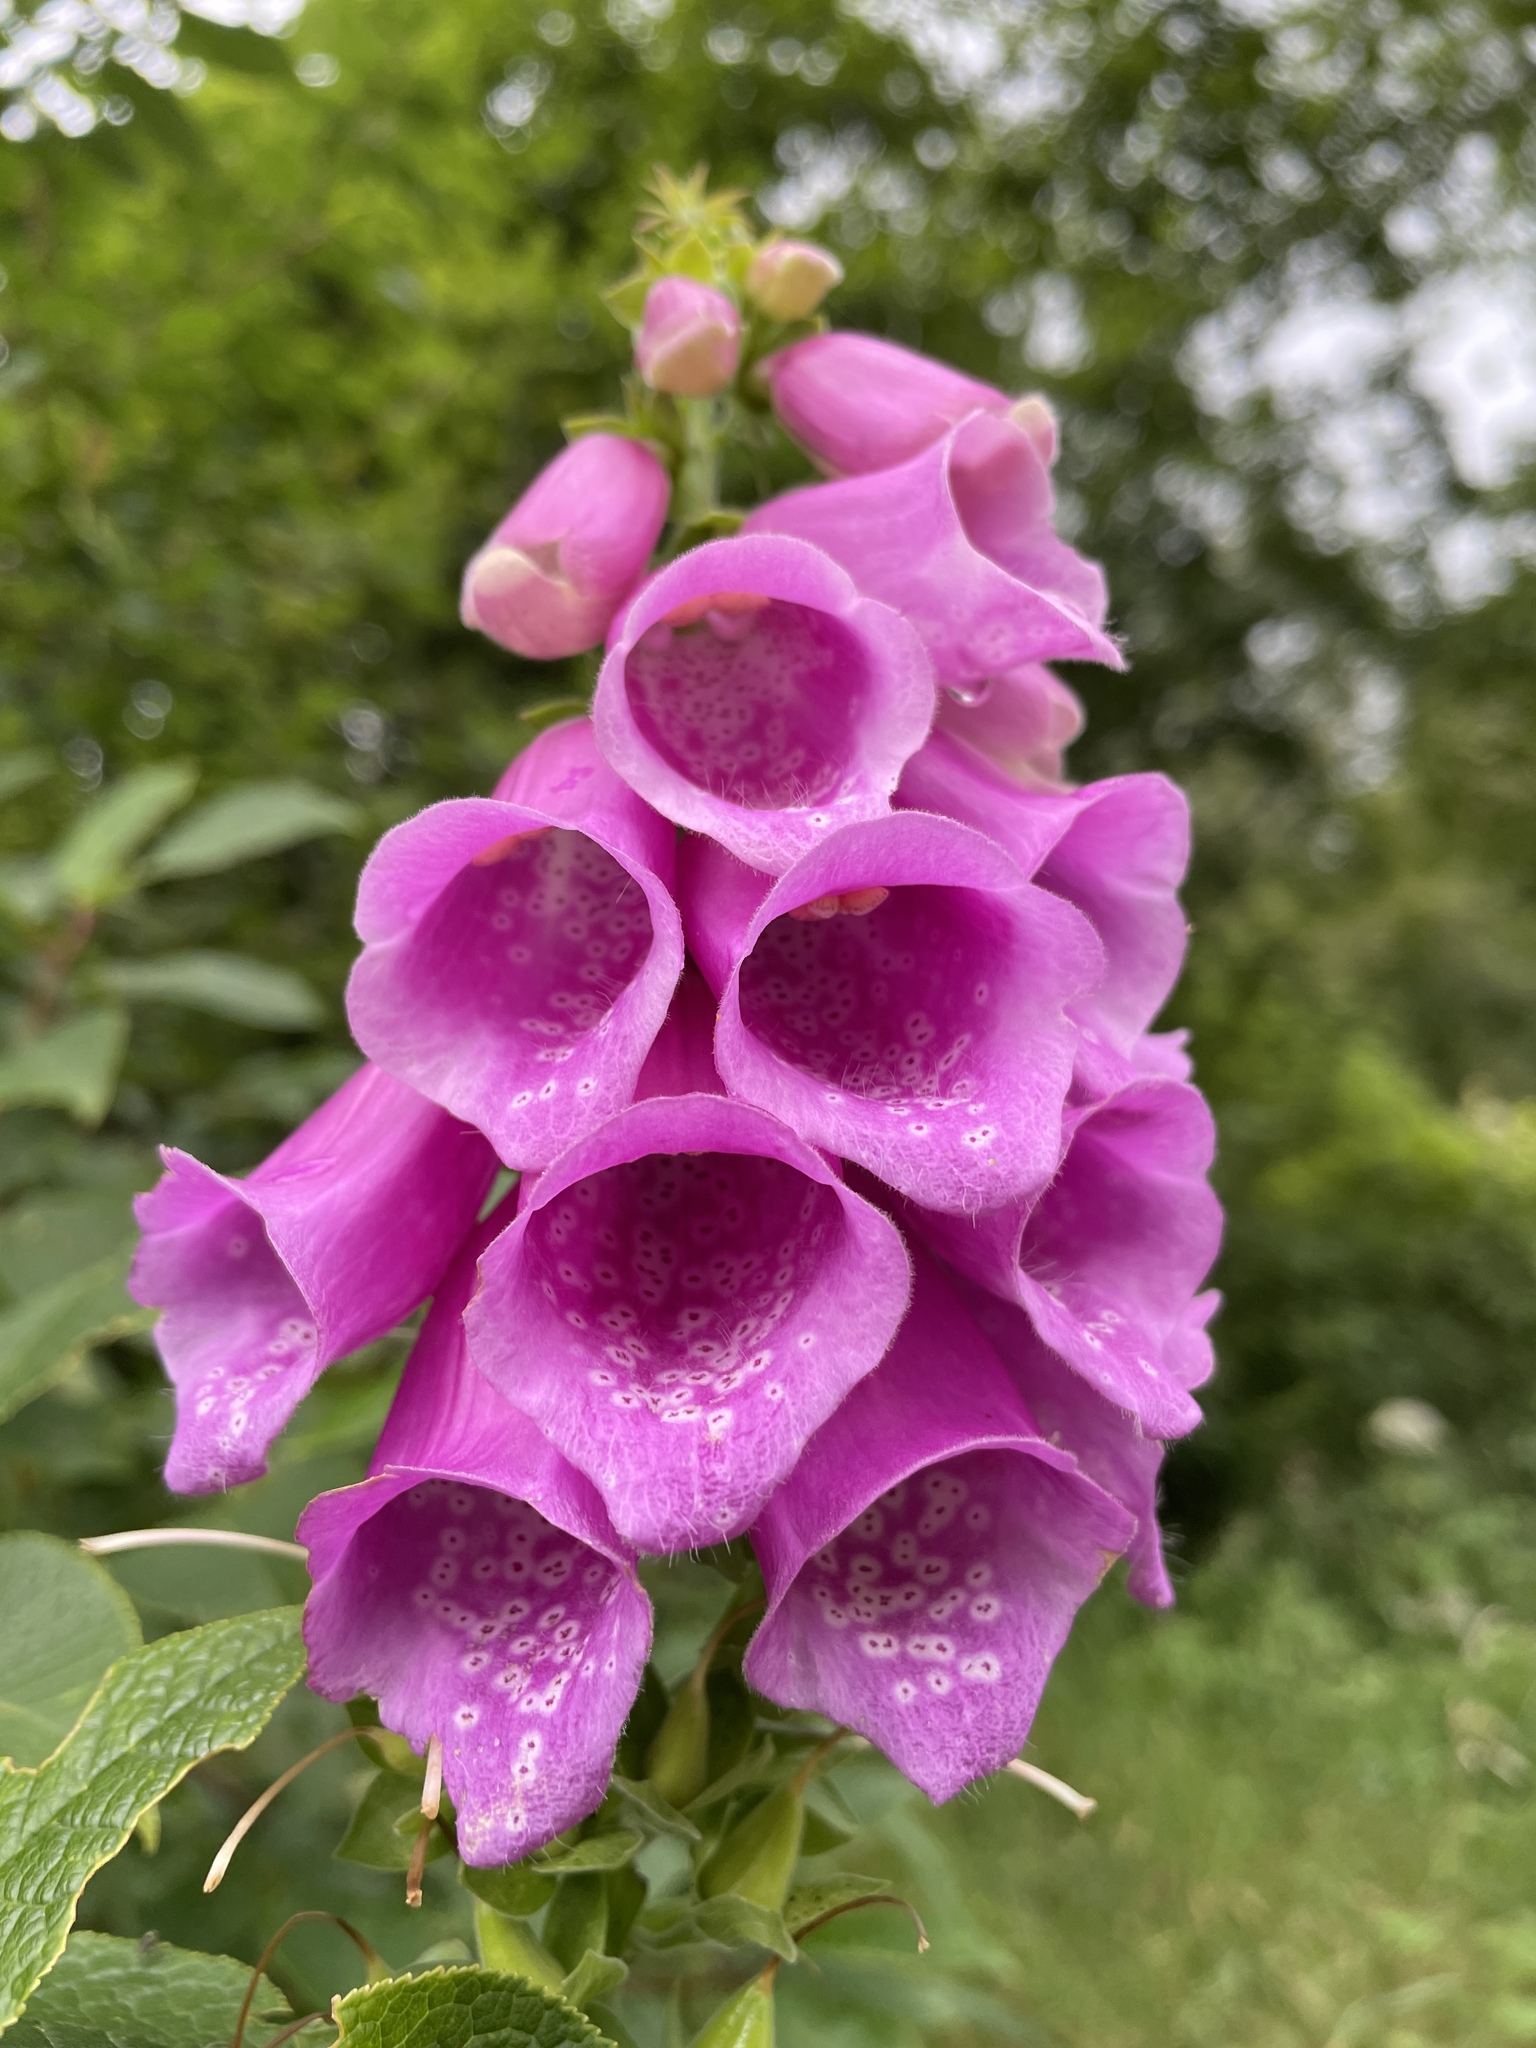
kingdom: Plantae
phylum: Tracheophyta
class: Magnoliopsida
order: Lamiales
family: Plantaginaceae
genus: Digitalis
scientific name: Digitalis purpurea
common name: Foxglove
